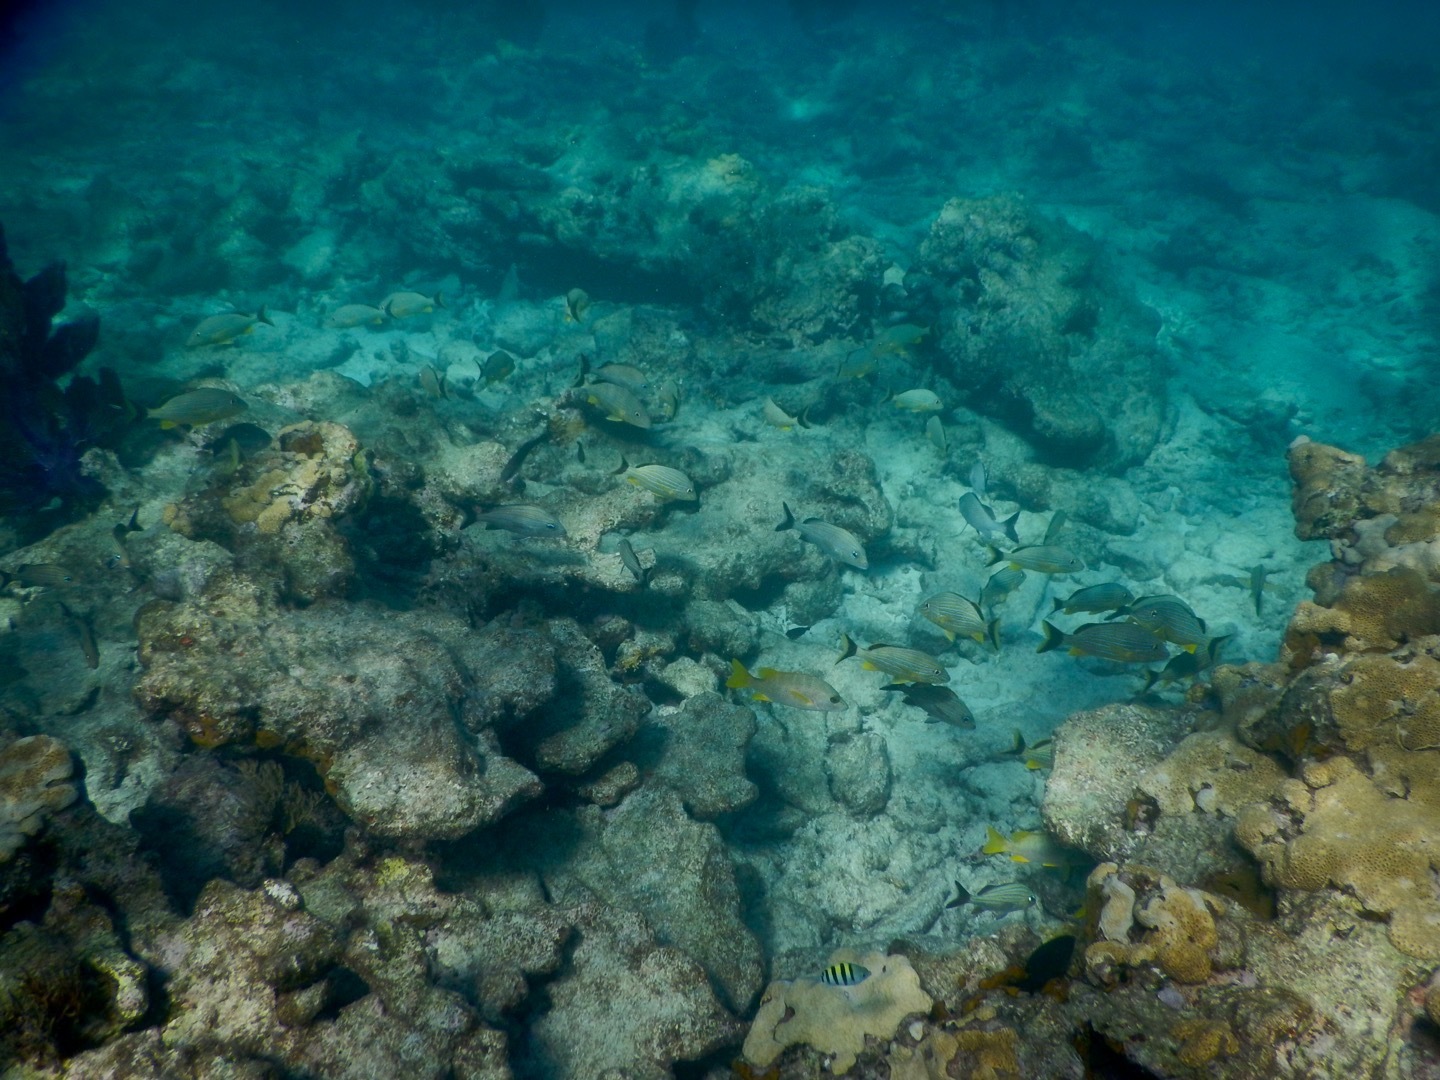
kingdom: Animalia
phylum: Chordata
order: Perciformes
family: Haemulidae
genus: Haemulon
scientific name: Haemulon sciurus
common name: Bluestriped grunt
